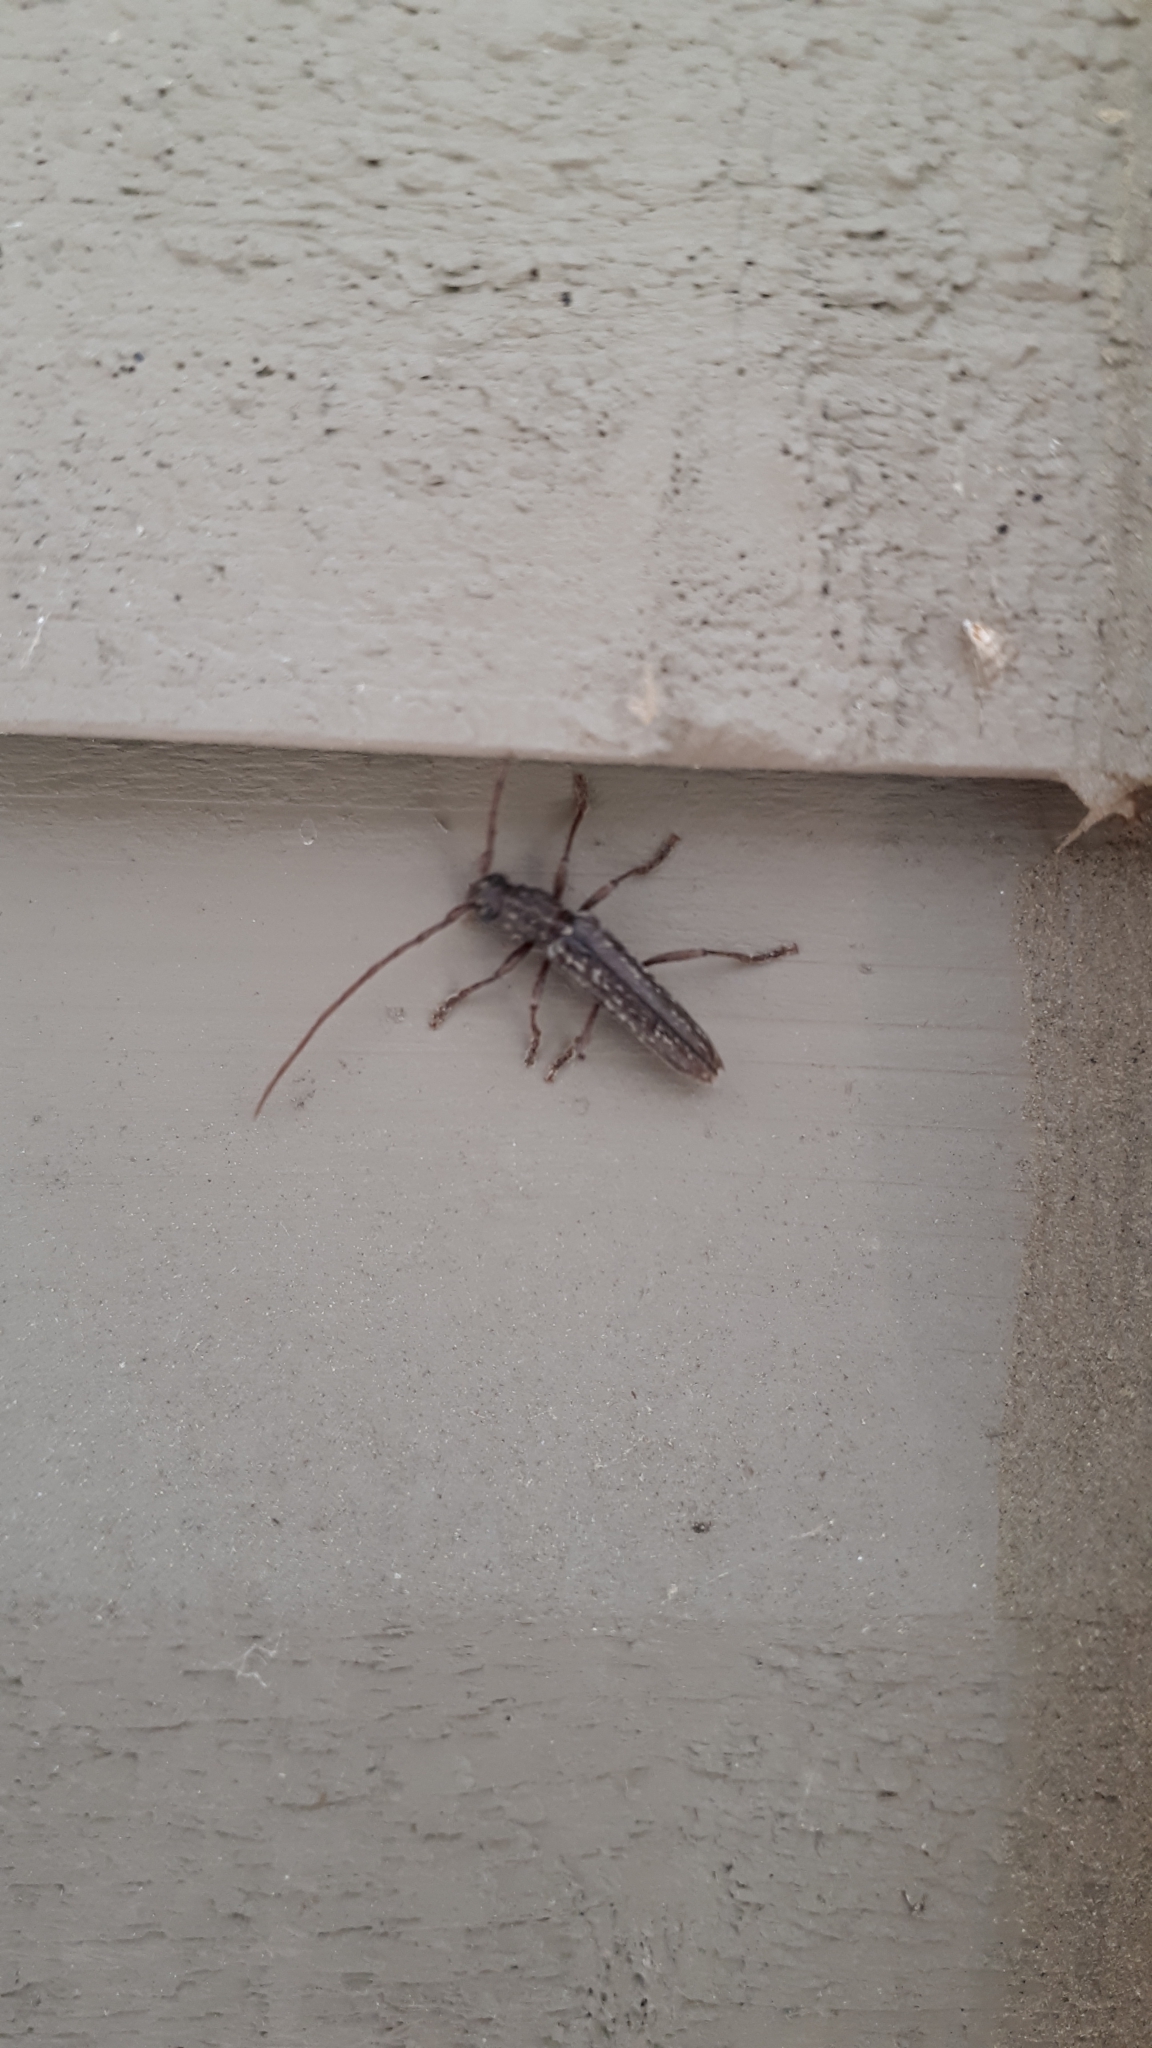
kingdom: Animalia
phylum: Arthropoda
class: Insecta
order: Coleoptera
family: Cerambycidae
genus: Anelaphus
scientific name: Anelaphus villosus
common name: Twig pruner
